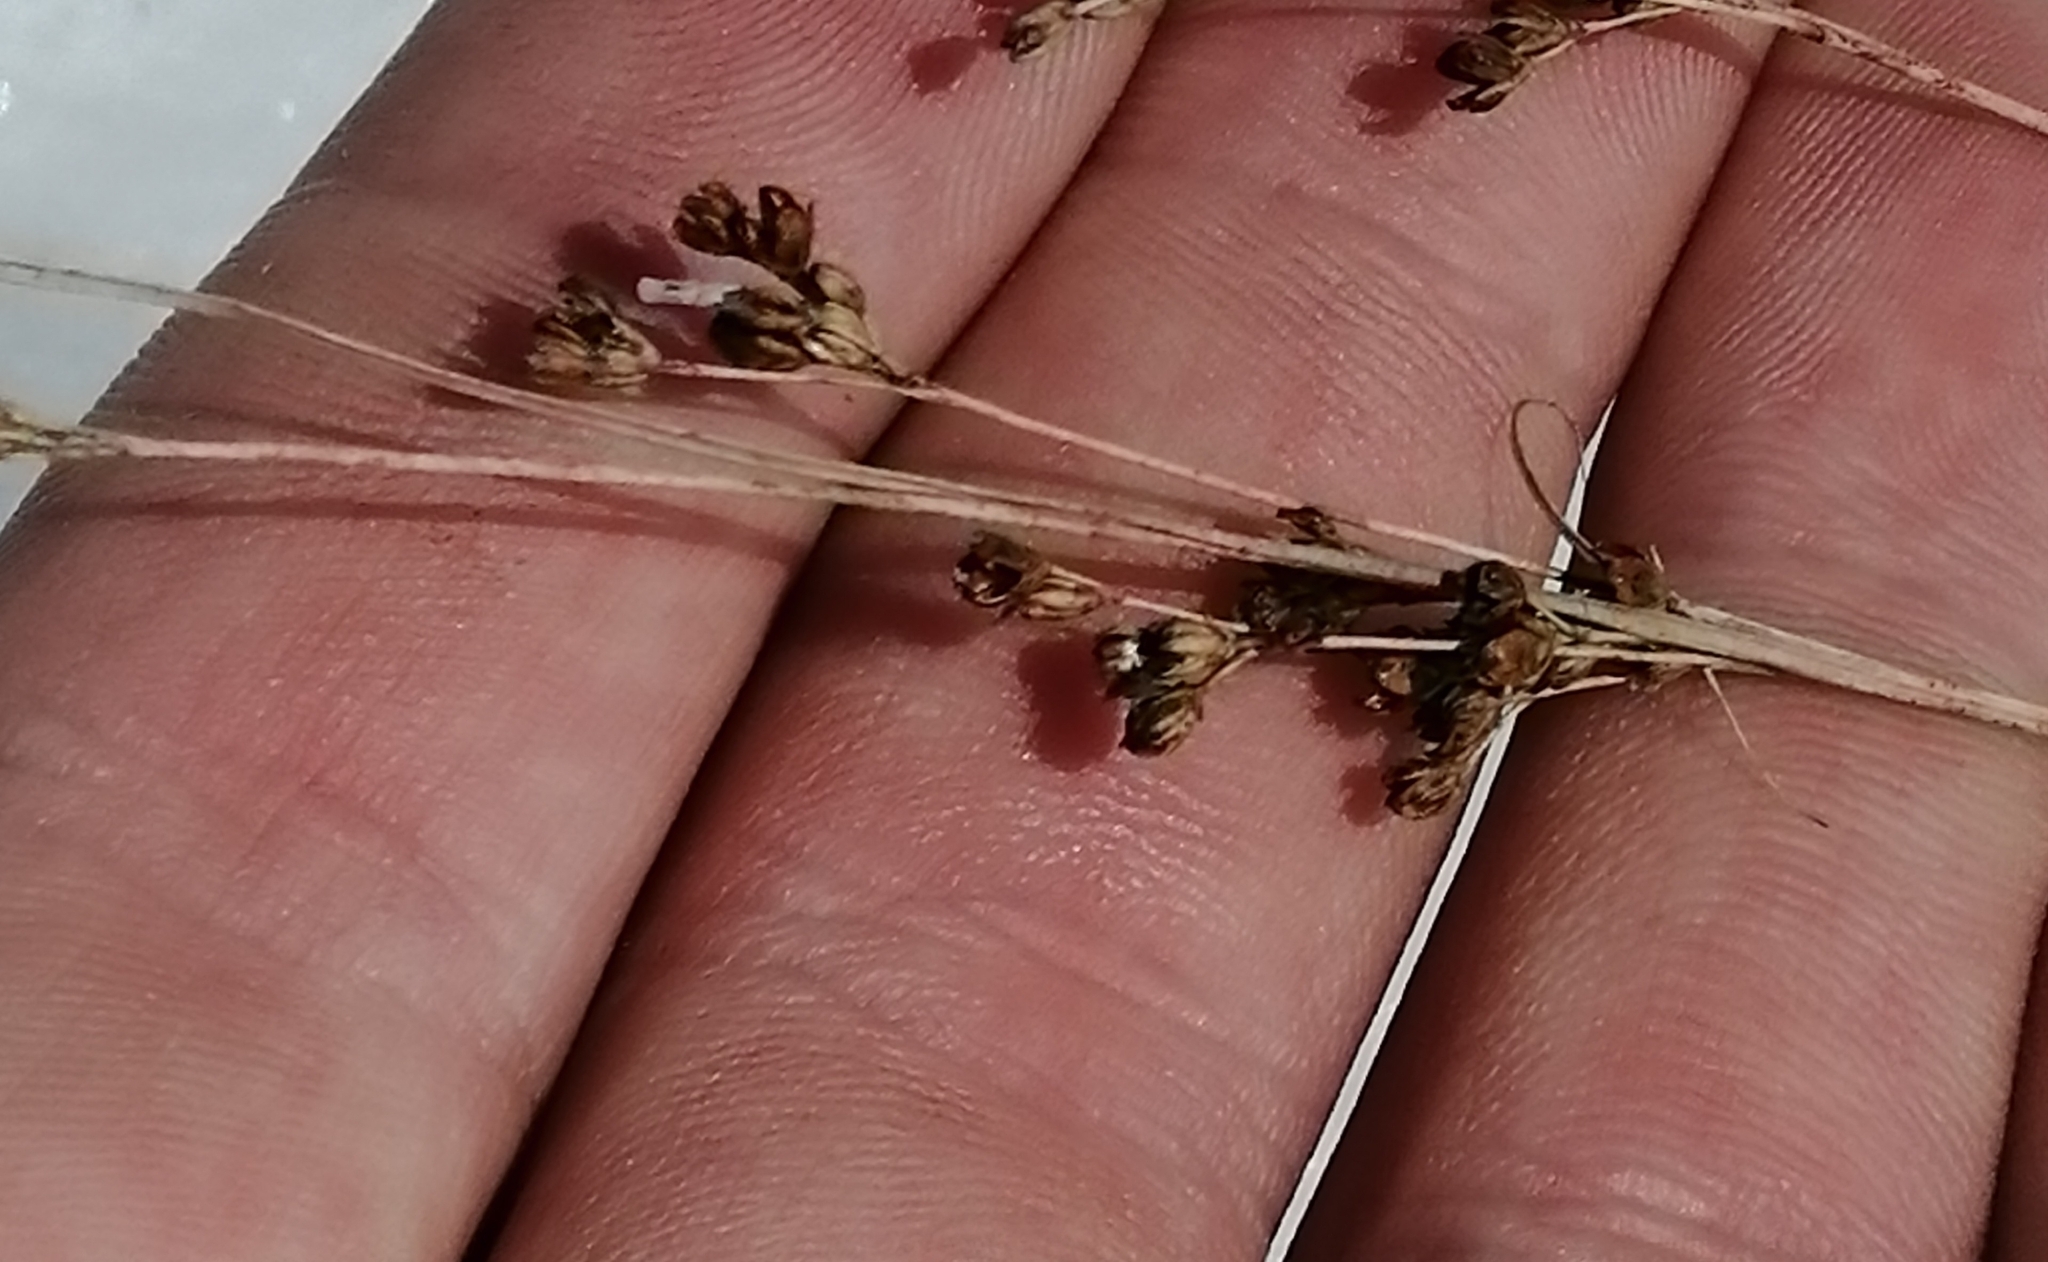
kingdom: Plantae
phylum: Tracheophyta
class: Liliopsida
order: Poales
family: Juncaceae
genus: Juncus
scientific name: Juncus compressus
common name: Round-fruited rush
